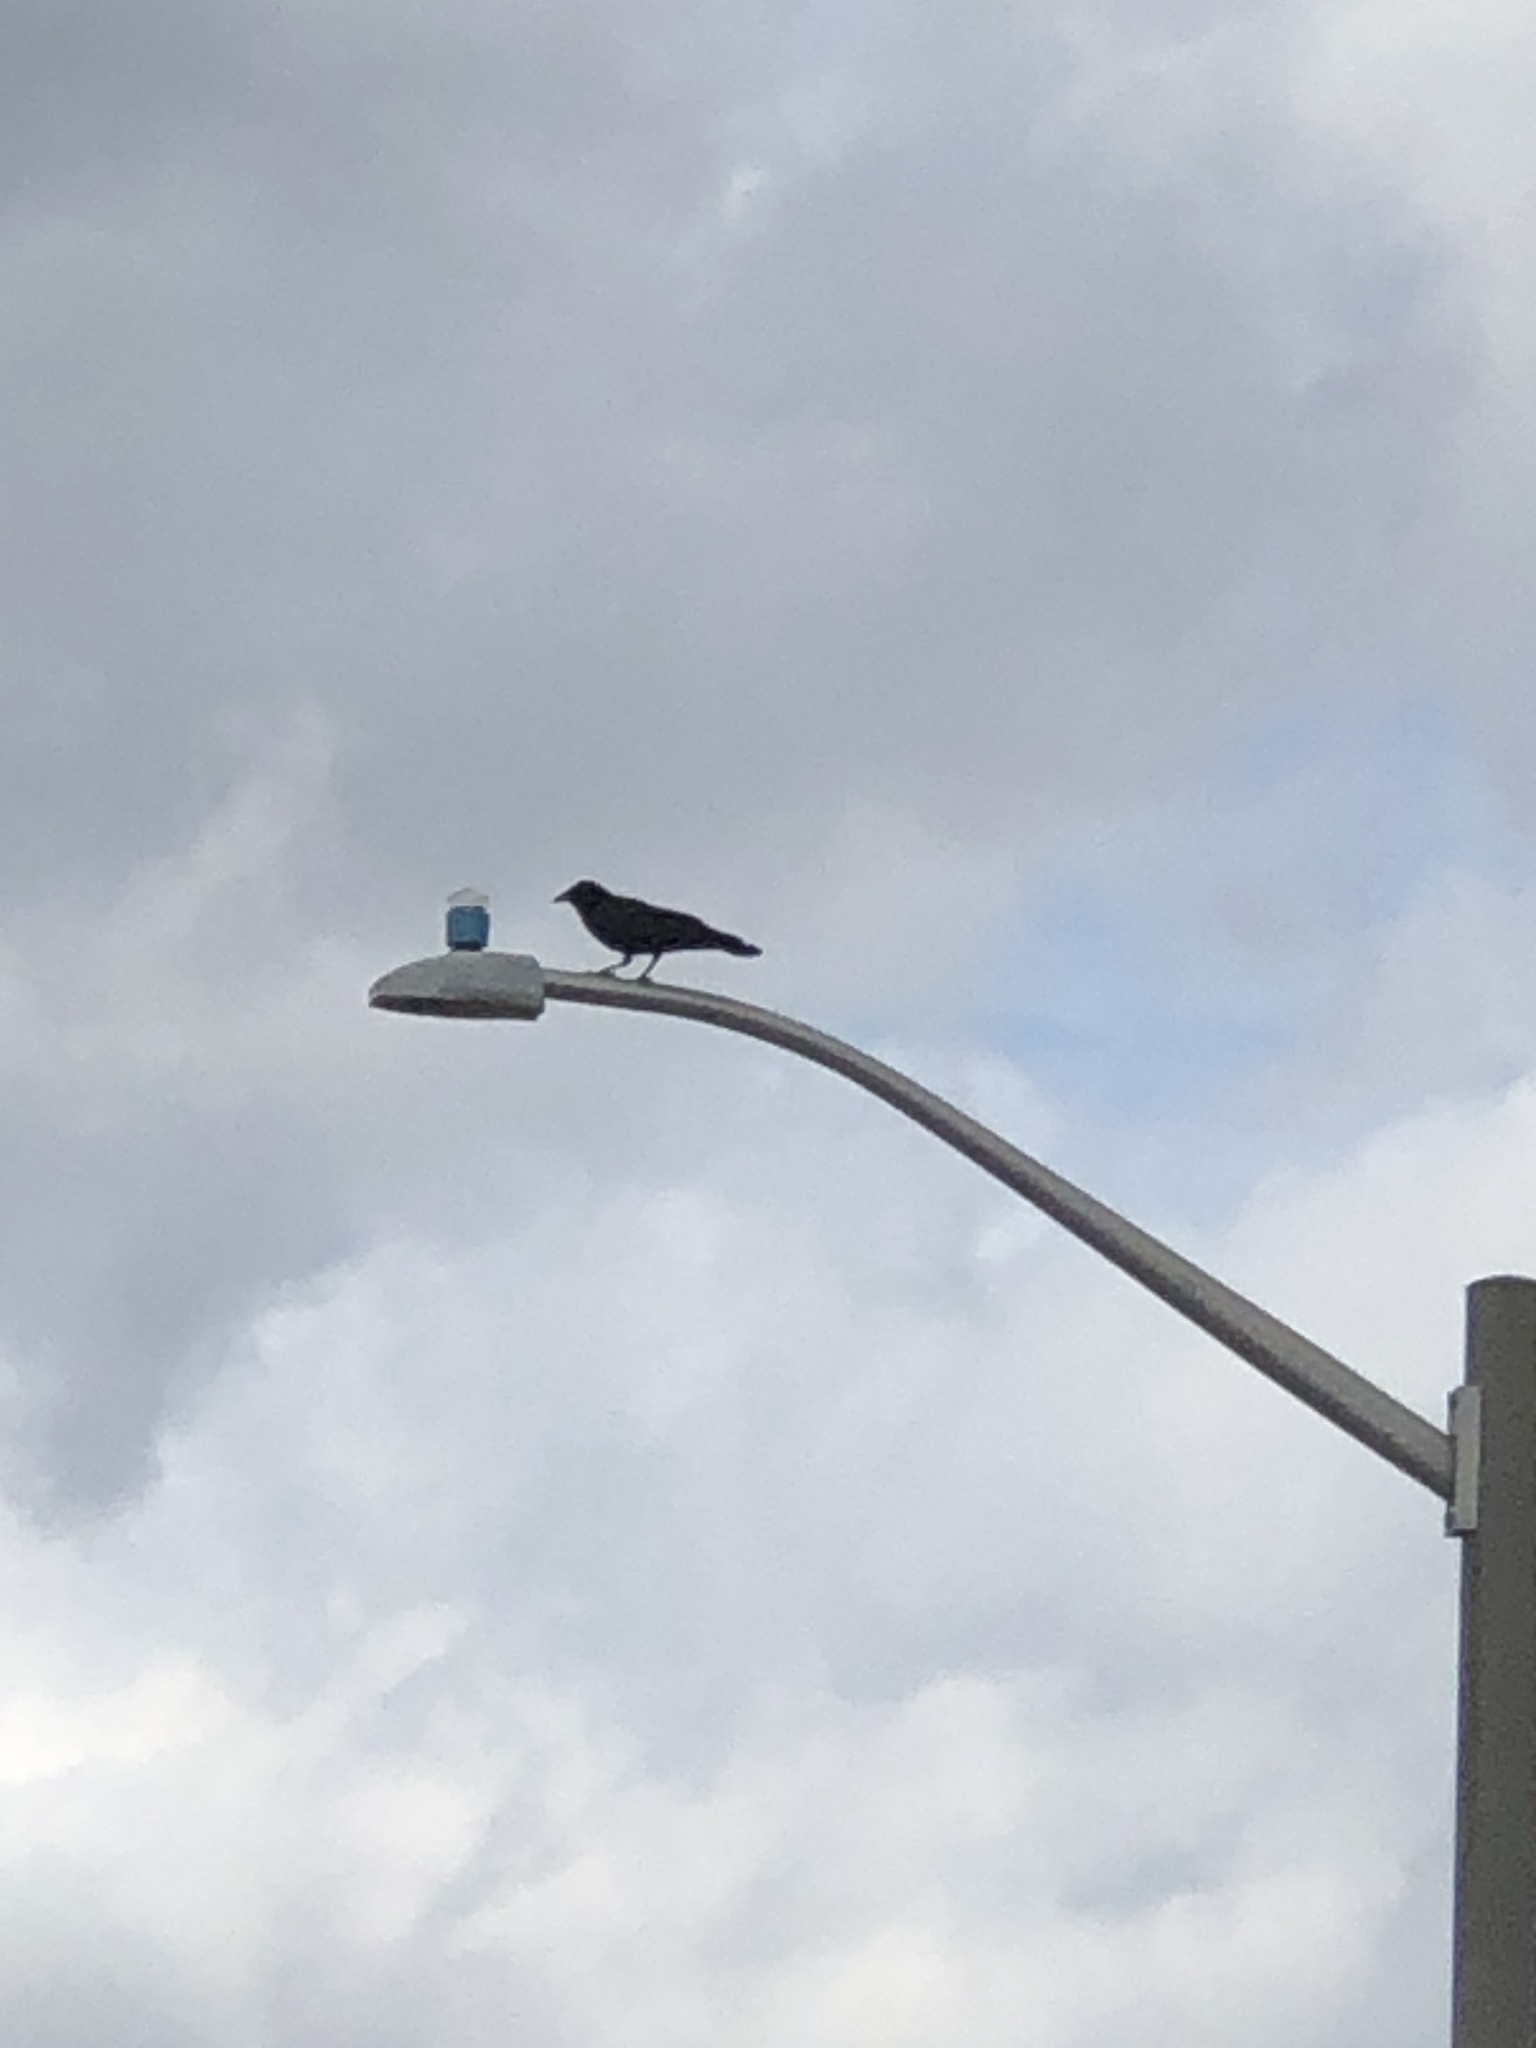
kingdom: Animalia
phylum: Chordata
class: Aves
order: Passeriformes
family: Corvidae
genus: Corvus
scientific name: Corvus brachyrhynchos
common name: American crow
